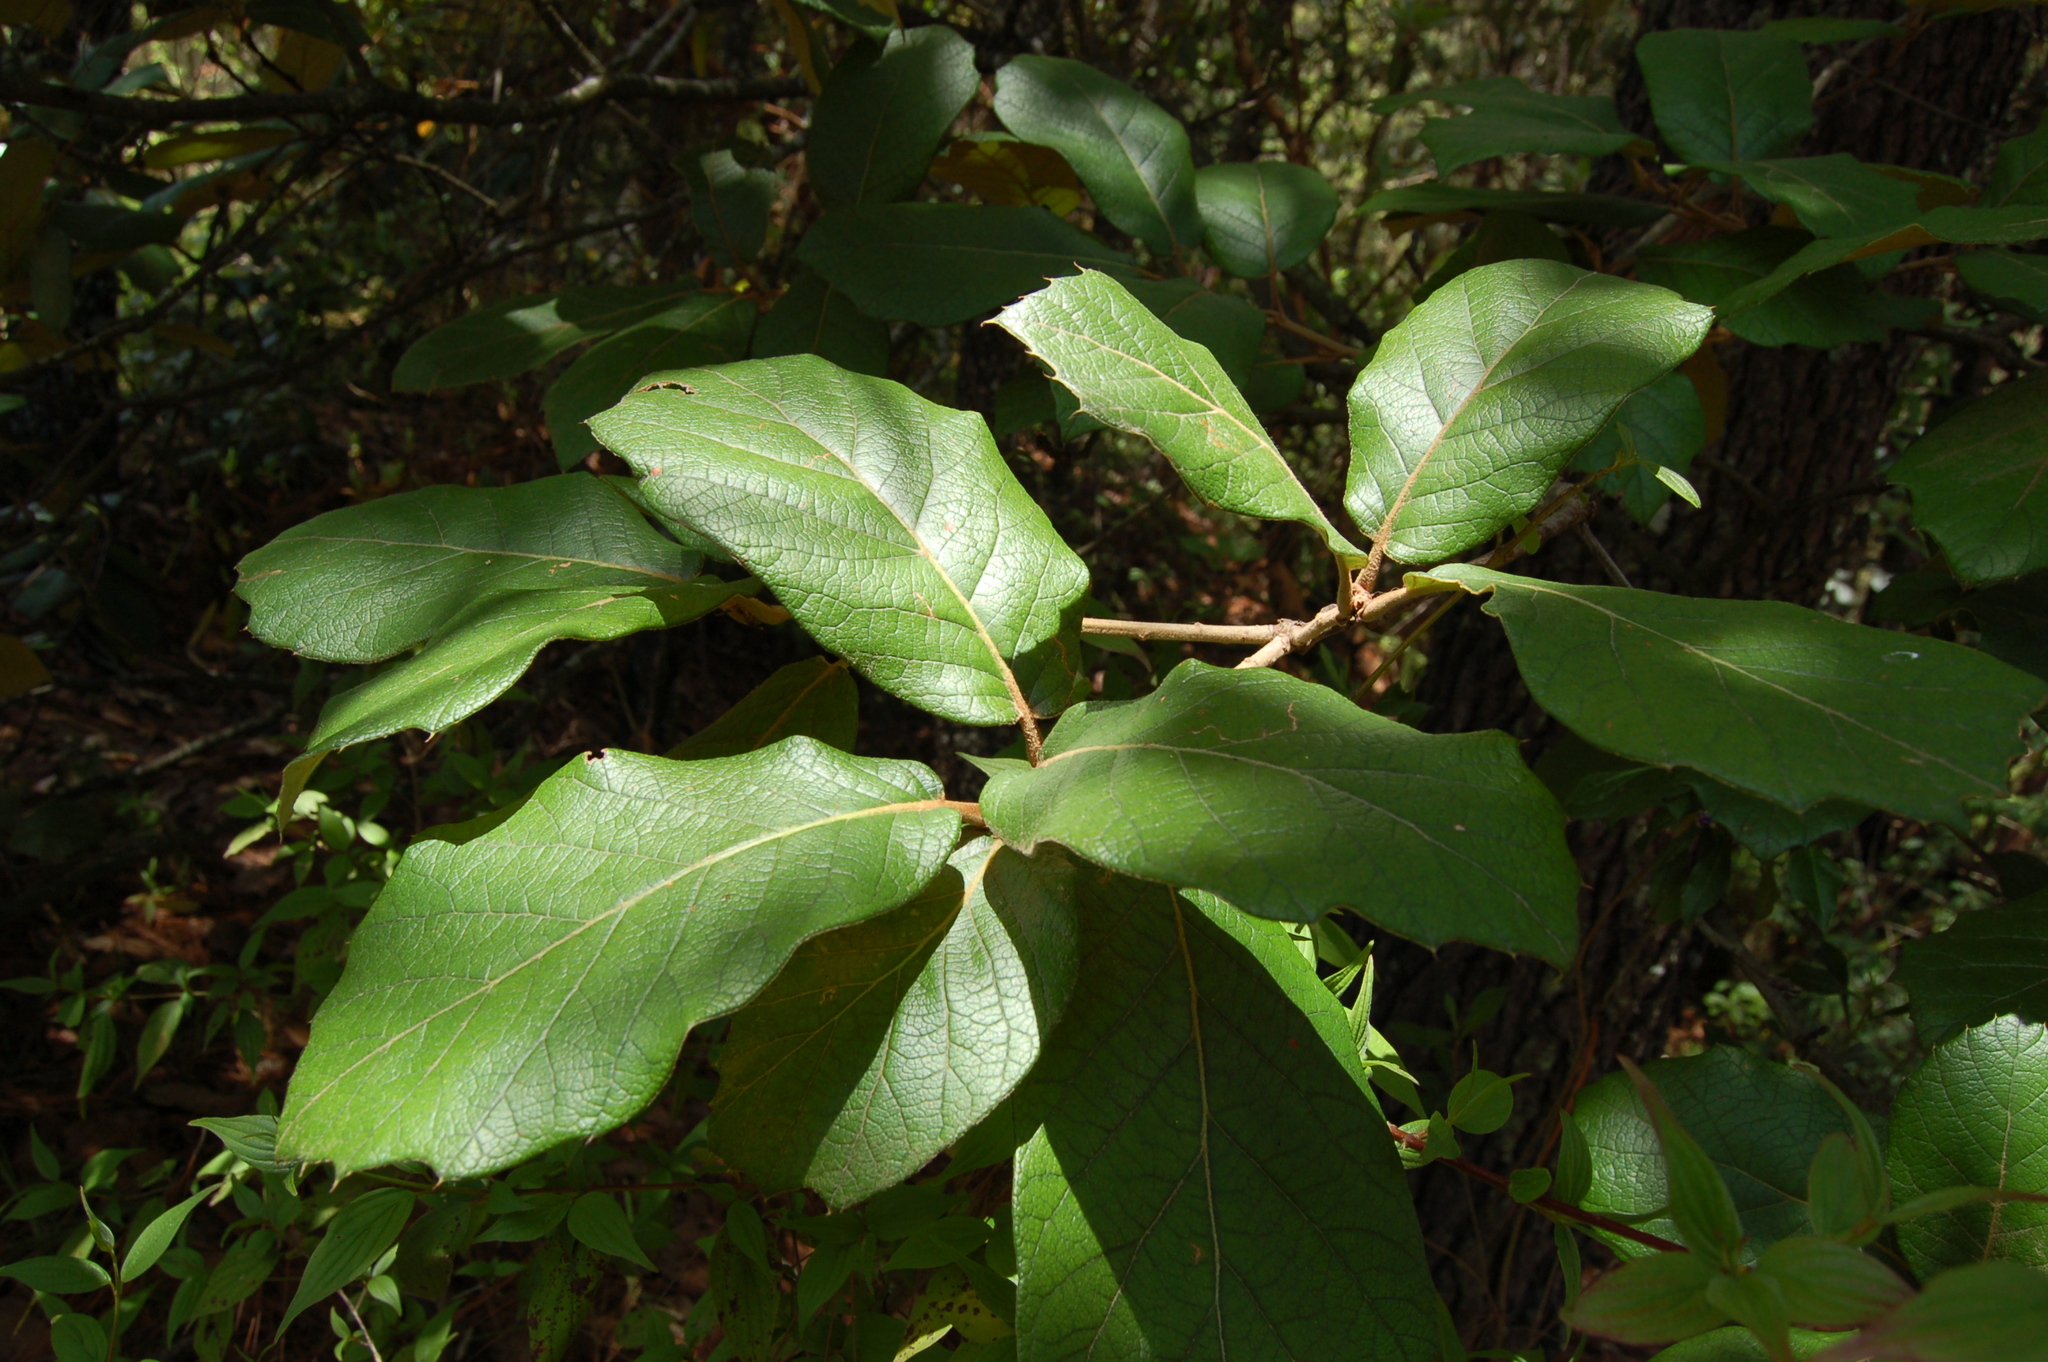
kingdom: Plantae
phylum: Tracheophyta
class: Magnoliopsida
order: Fagales
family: Fagaceae
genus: Quercus
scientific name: Quercus crassifolia
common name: Leather leaf mexican oak
